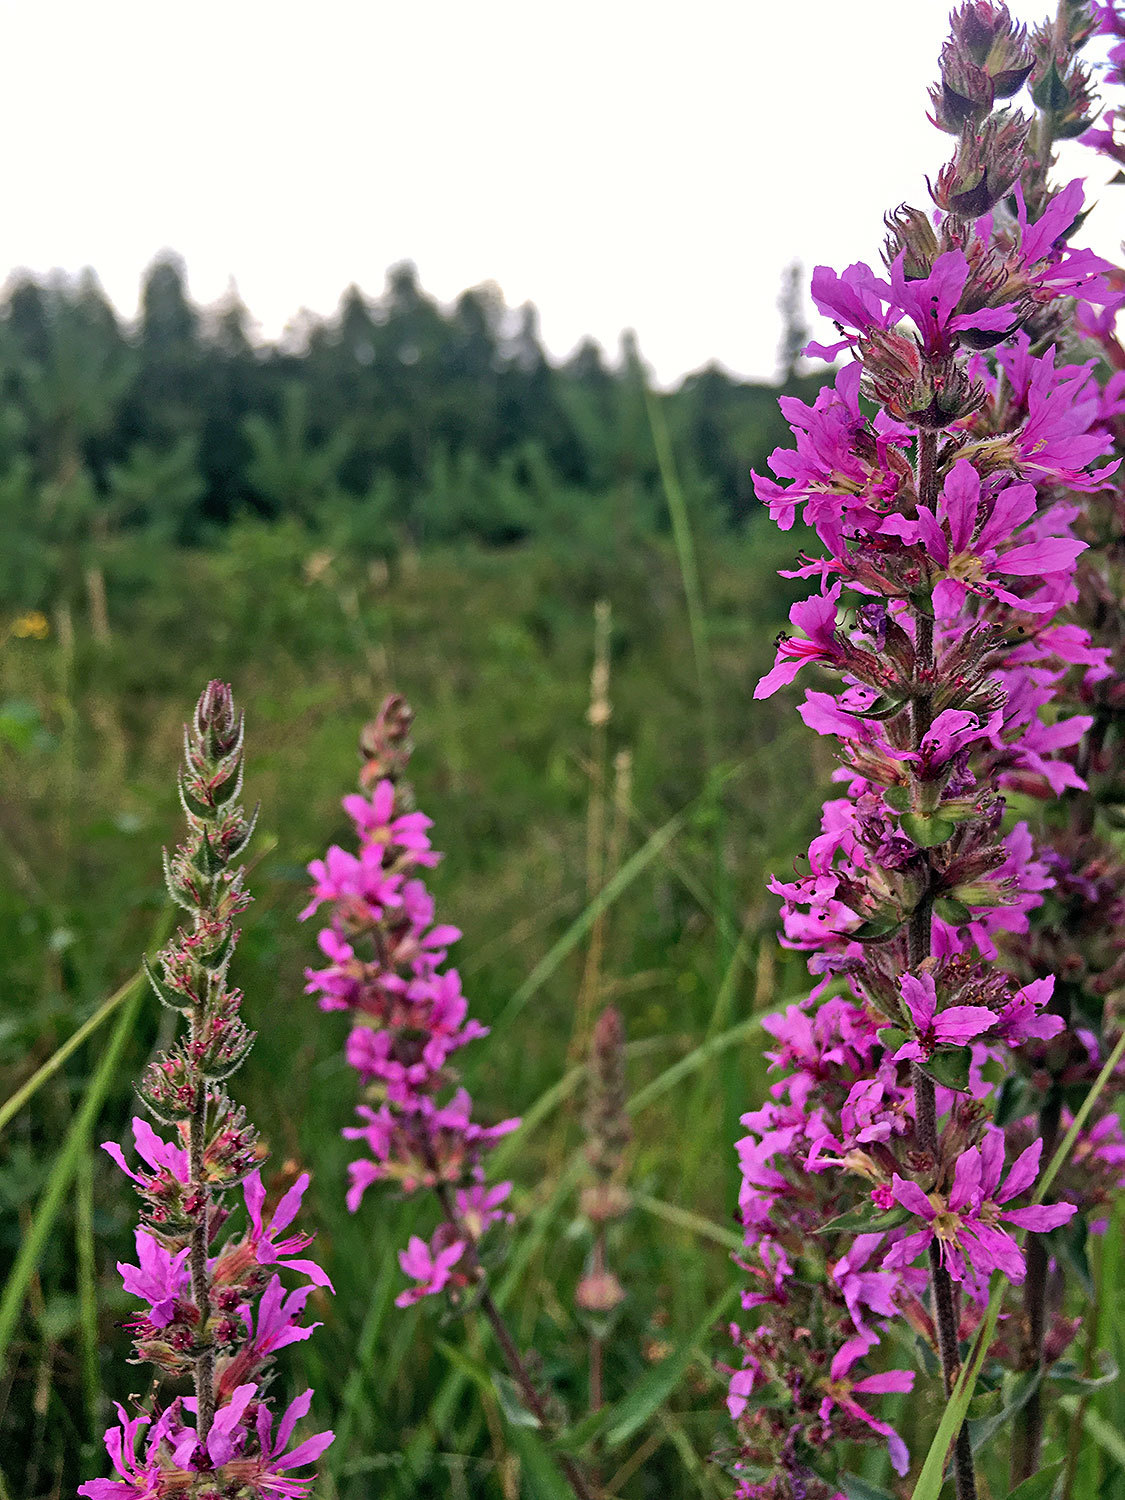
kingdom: Plantae
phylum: Tracheophyta
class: Magnoliopsida
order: Myrtales
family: Lythraceae
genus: Lythrum
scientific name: Lythrum salicaria
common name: Purple loosestrife
